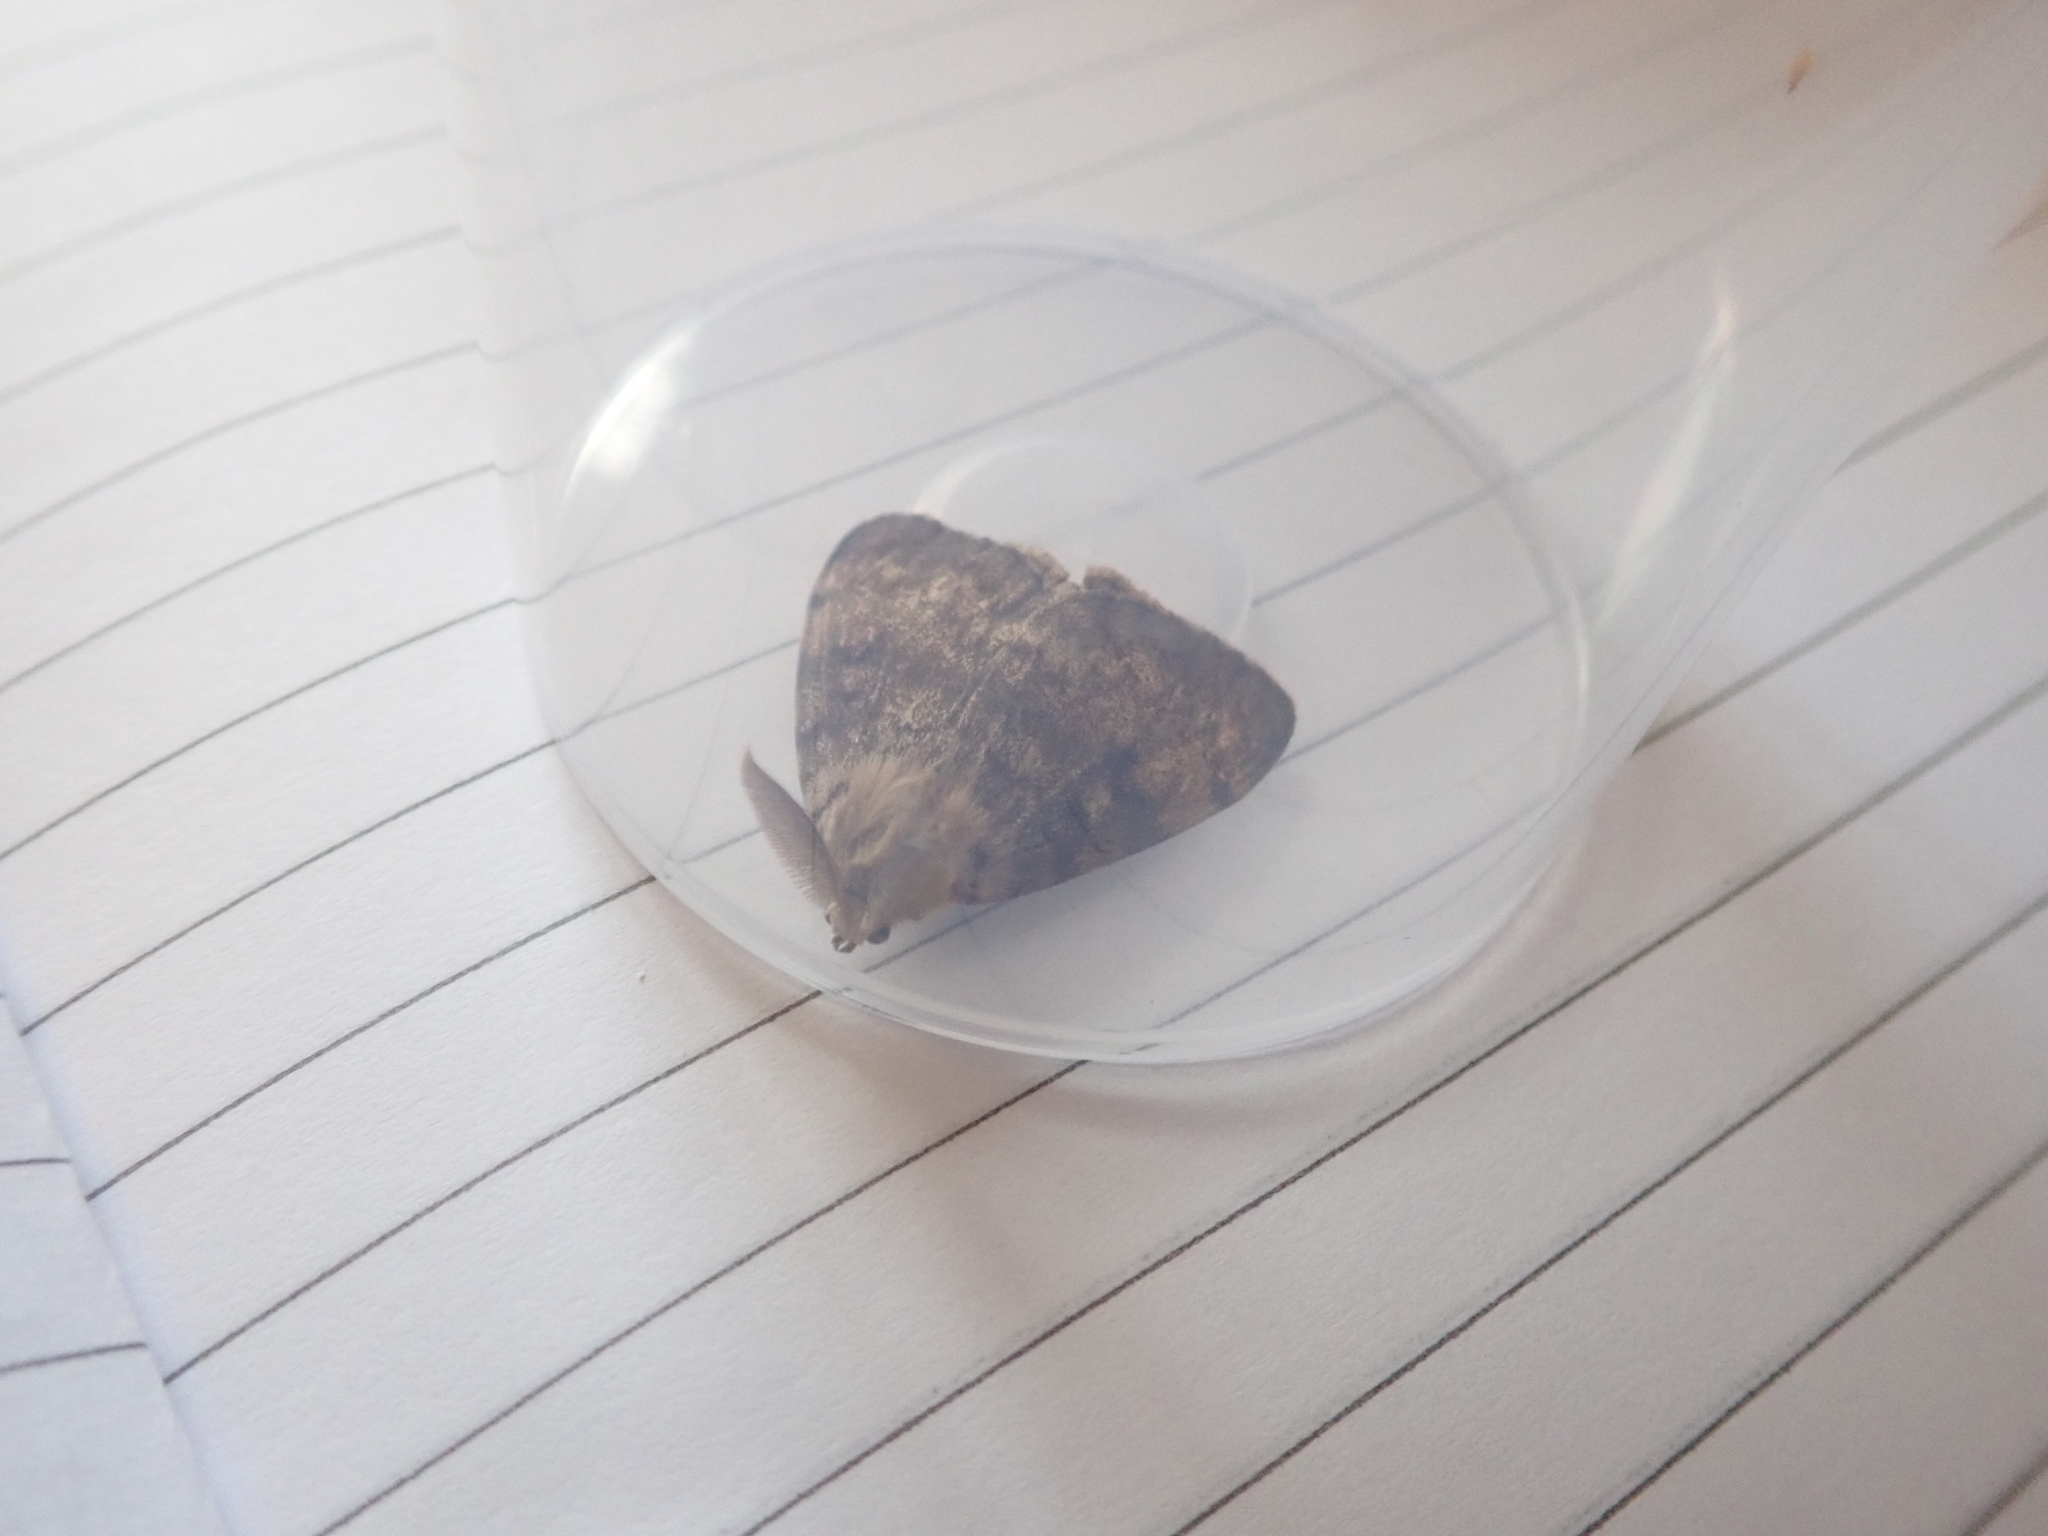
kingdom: Animalia
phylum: Arthropoda
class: Insecta
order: Lepidoptera
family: Erebidae
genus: Lymantria
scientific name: Lymantria dispar
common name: Gypsy moth
